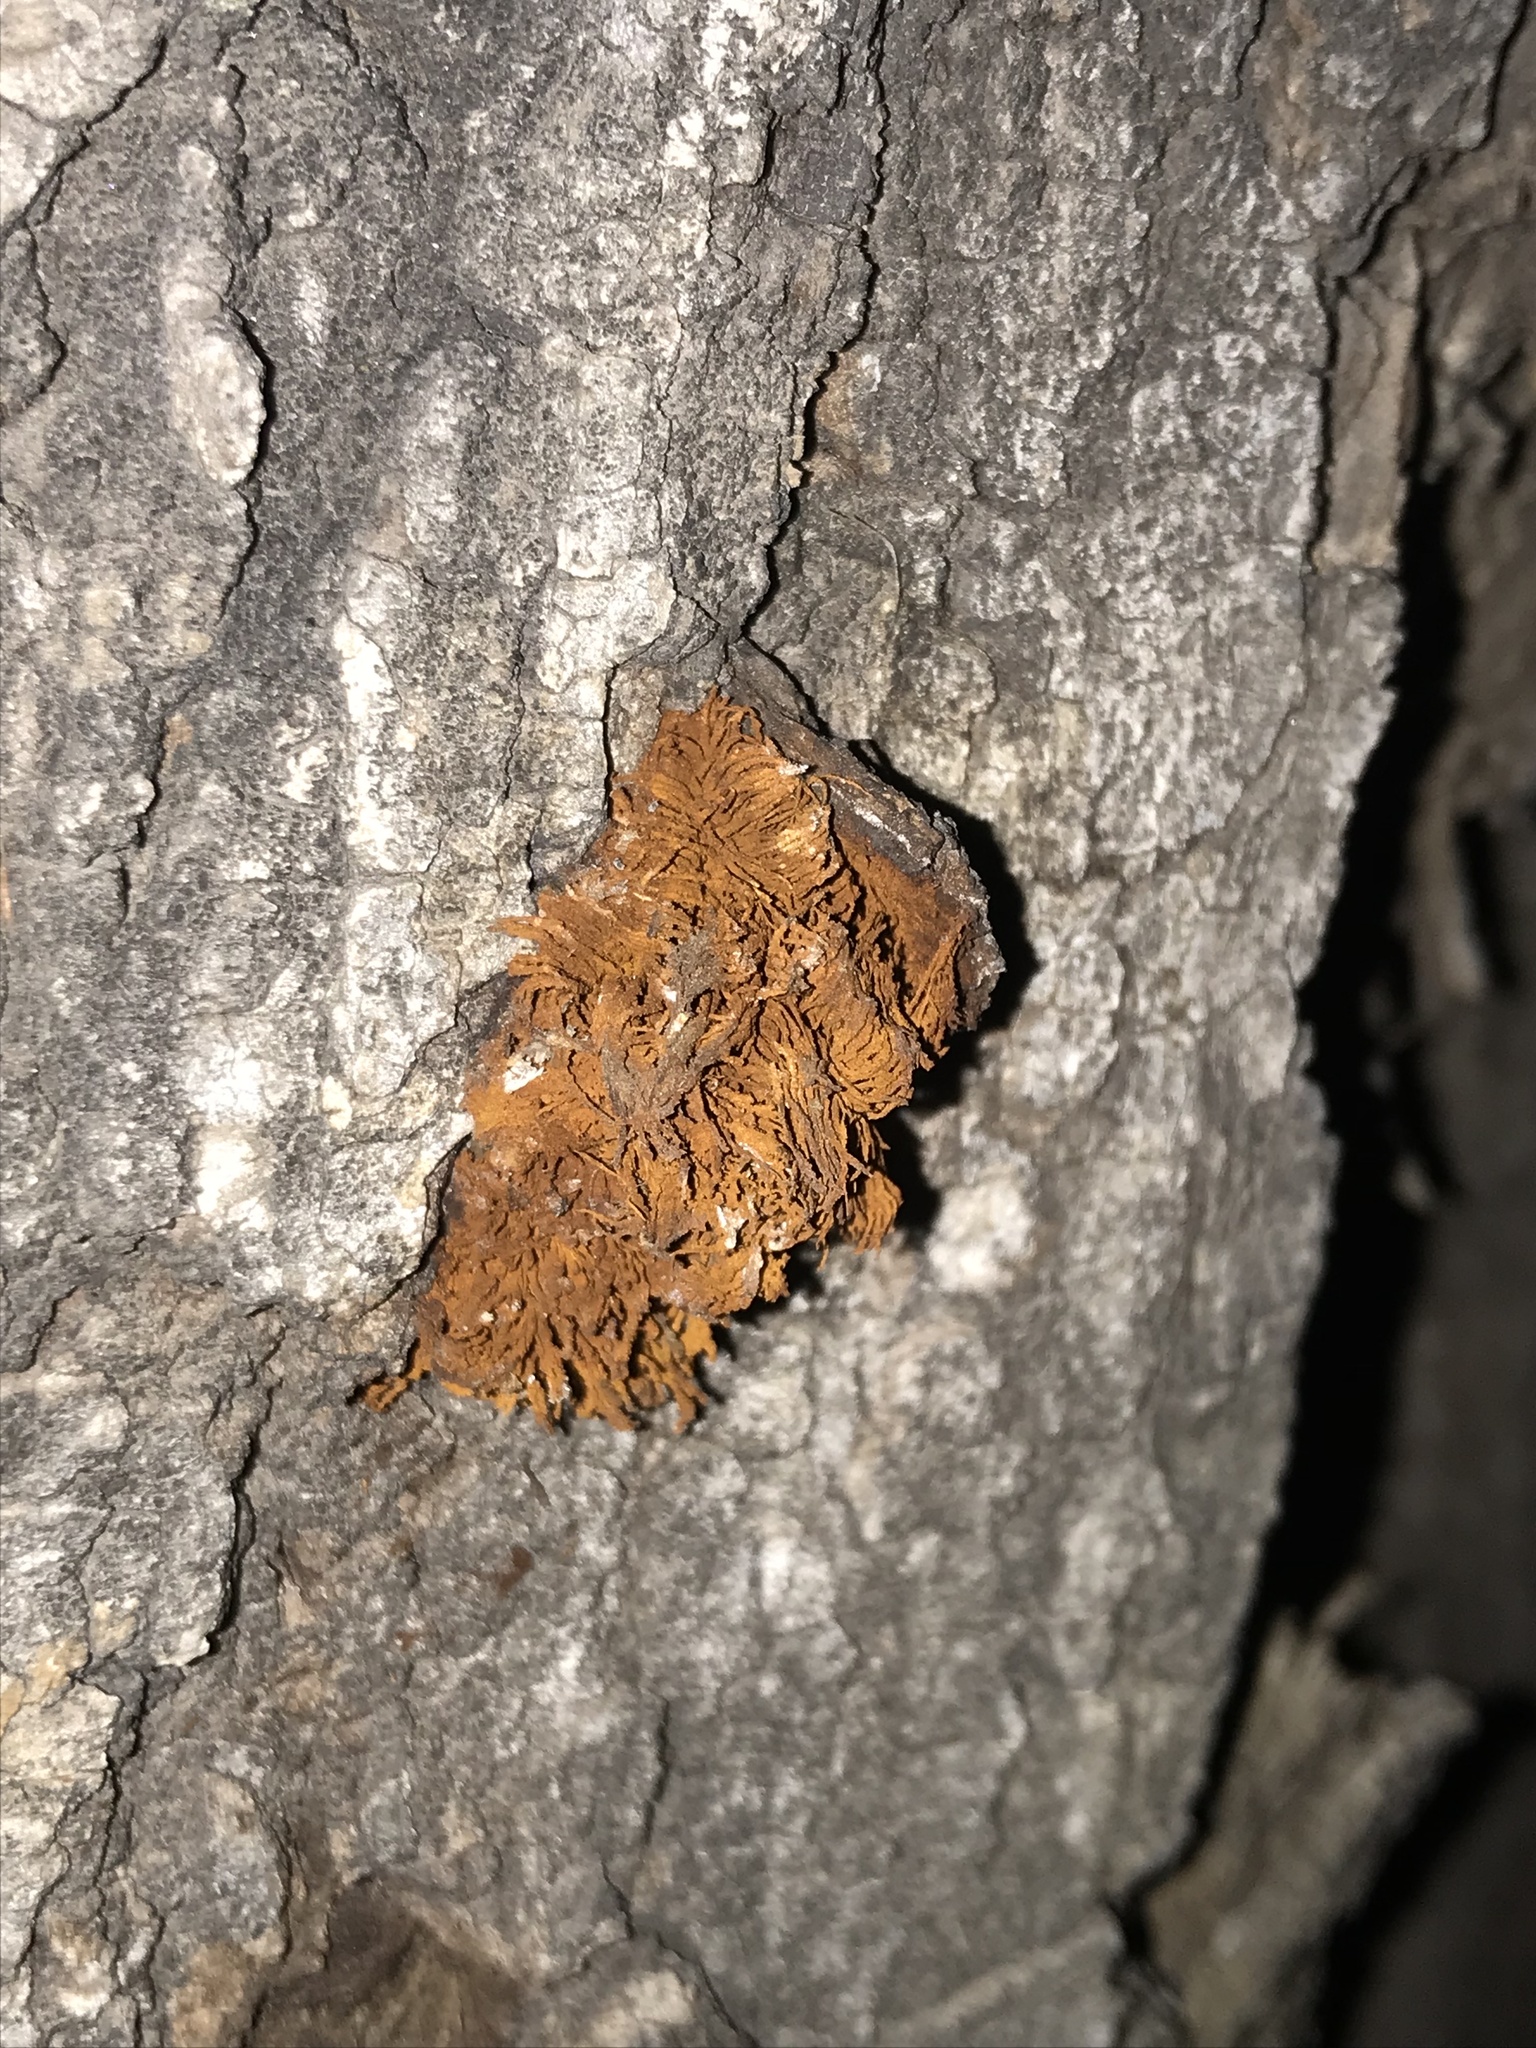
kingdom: Fungi
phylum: Basidiomycota
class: Agaricomycetes
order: Hymenochaetales
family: Hymenochaetaceae
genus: Inonotus
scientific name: Inonotus rickii
